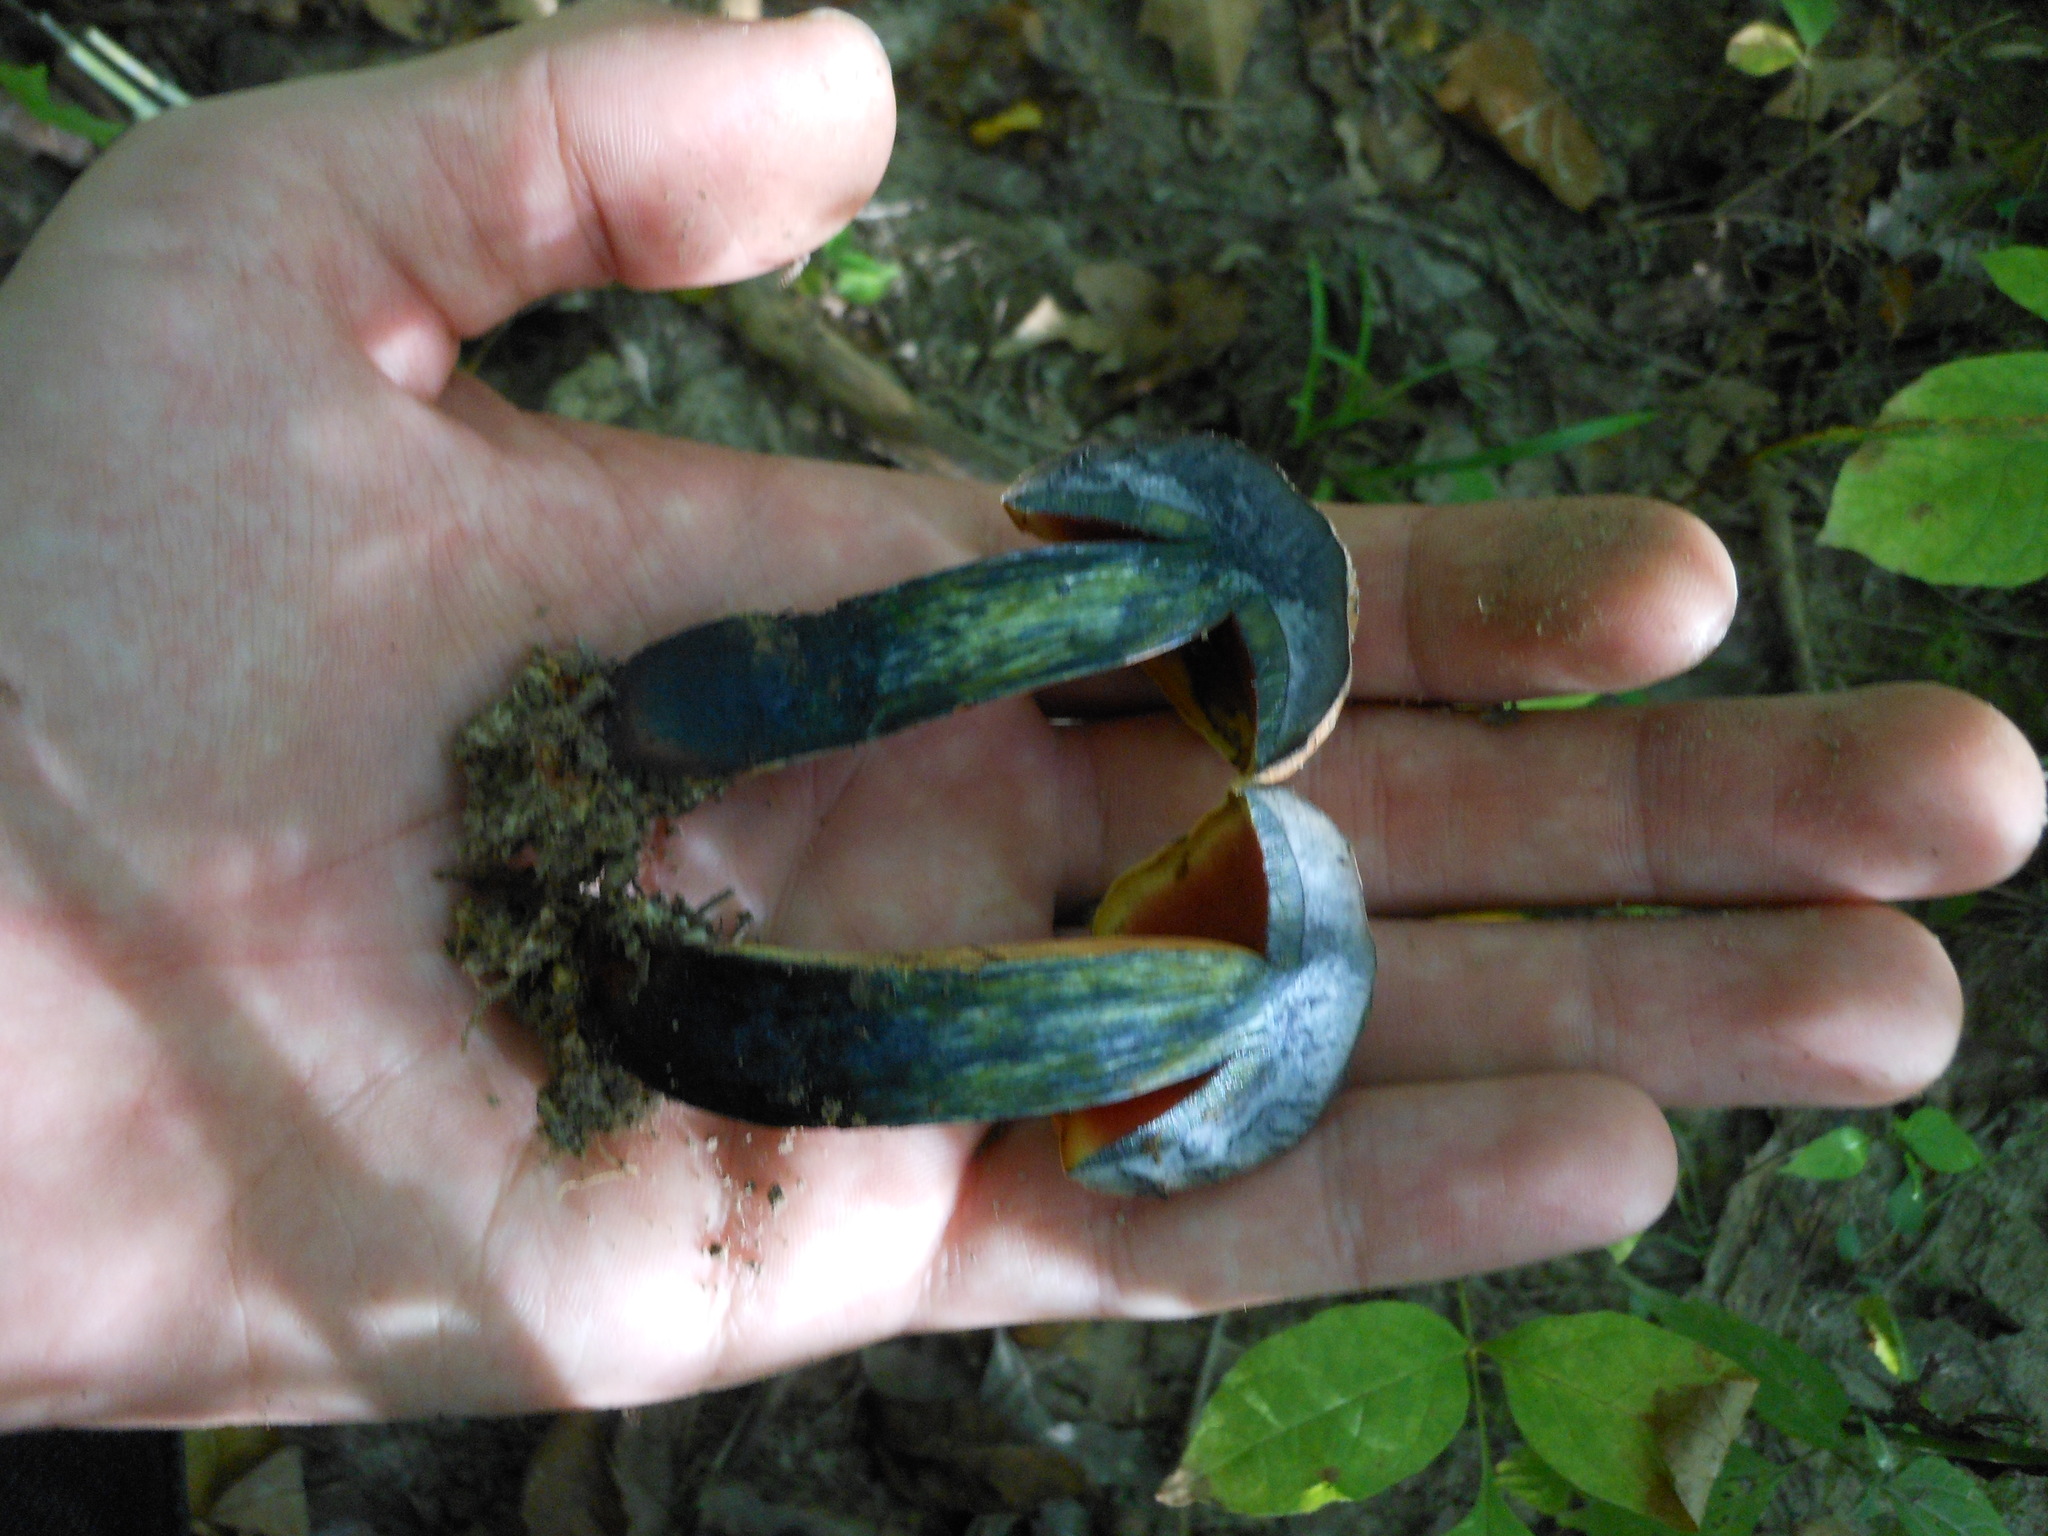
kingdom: Fungi
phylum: Basidiomycota
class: Agaricomycetes
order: Boletales
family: Boletaceae
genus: Boletus
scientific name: Boletus subvelutipes
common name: Red-mouth bolete
